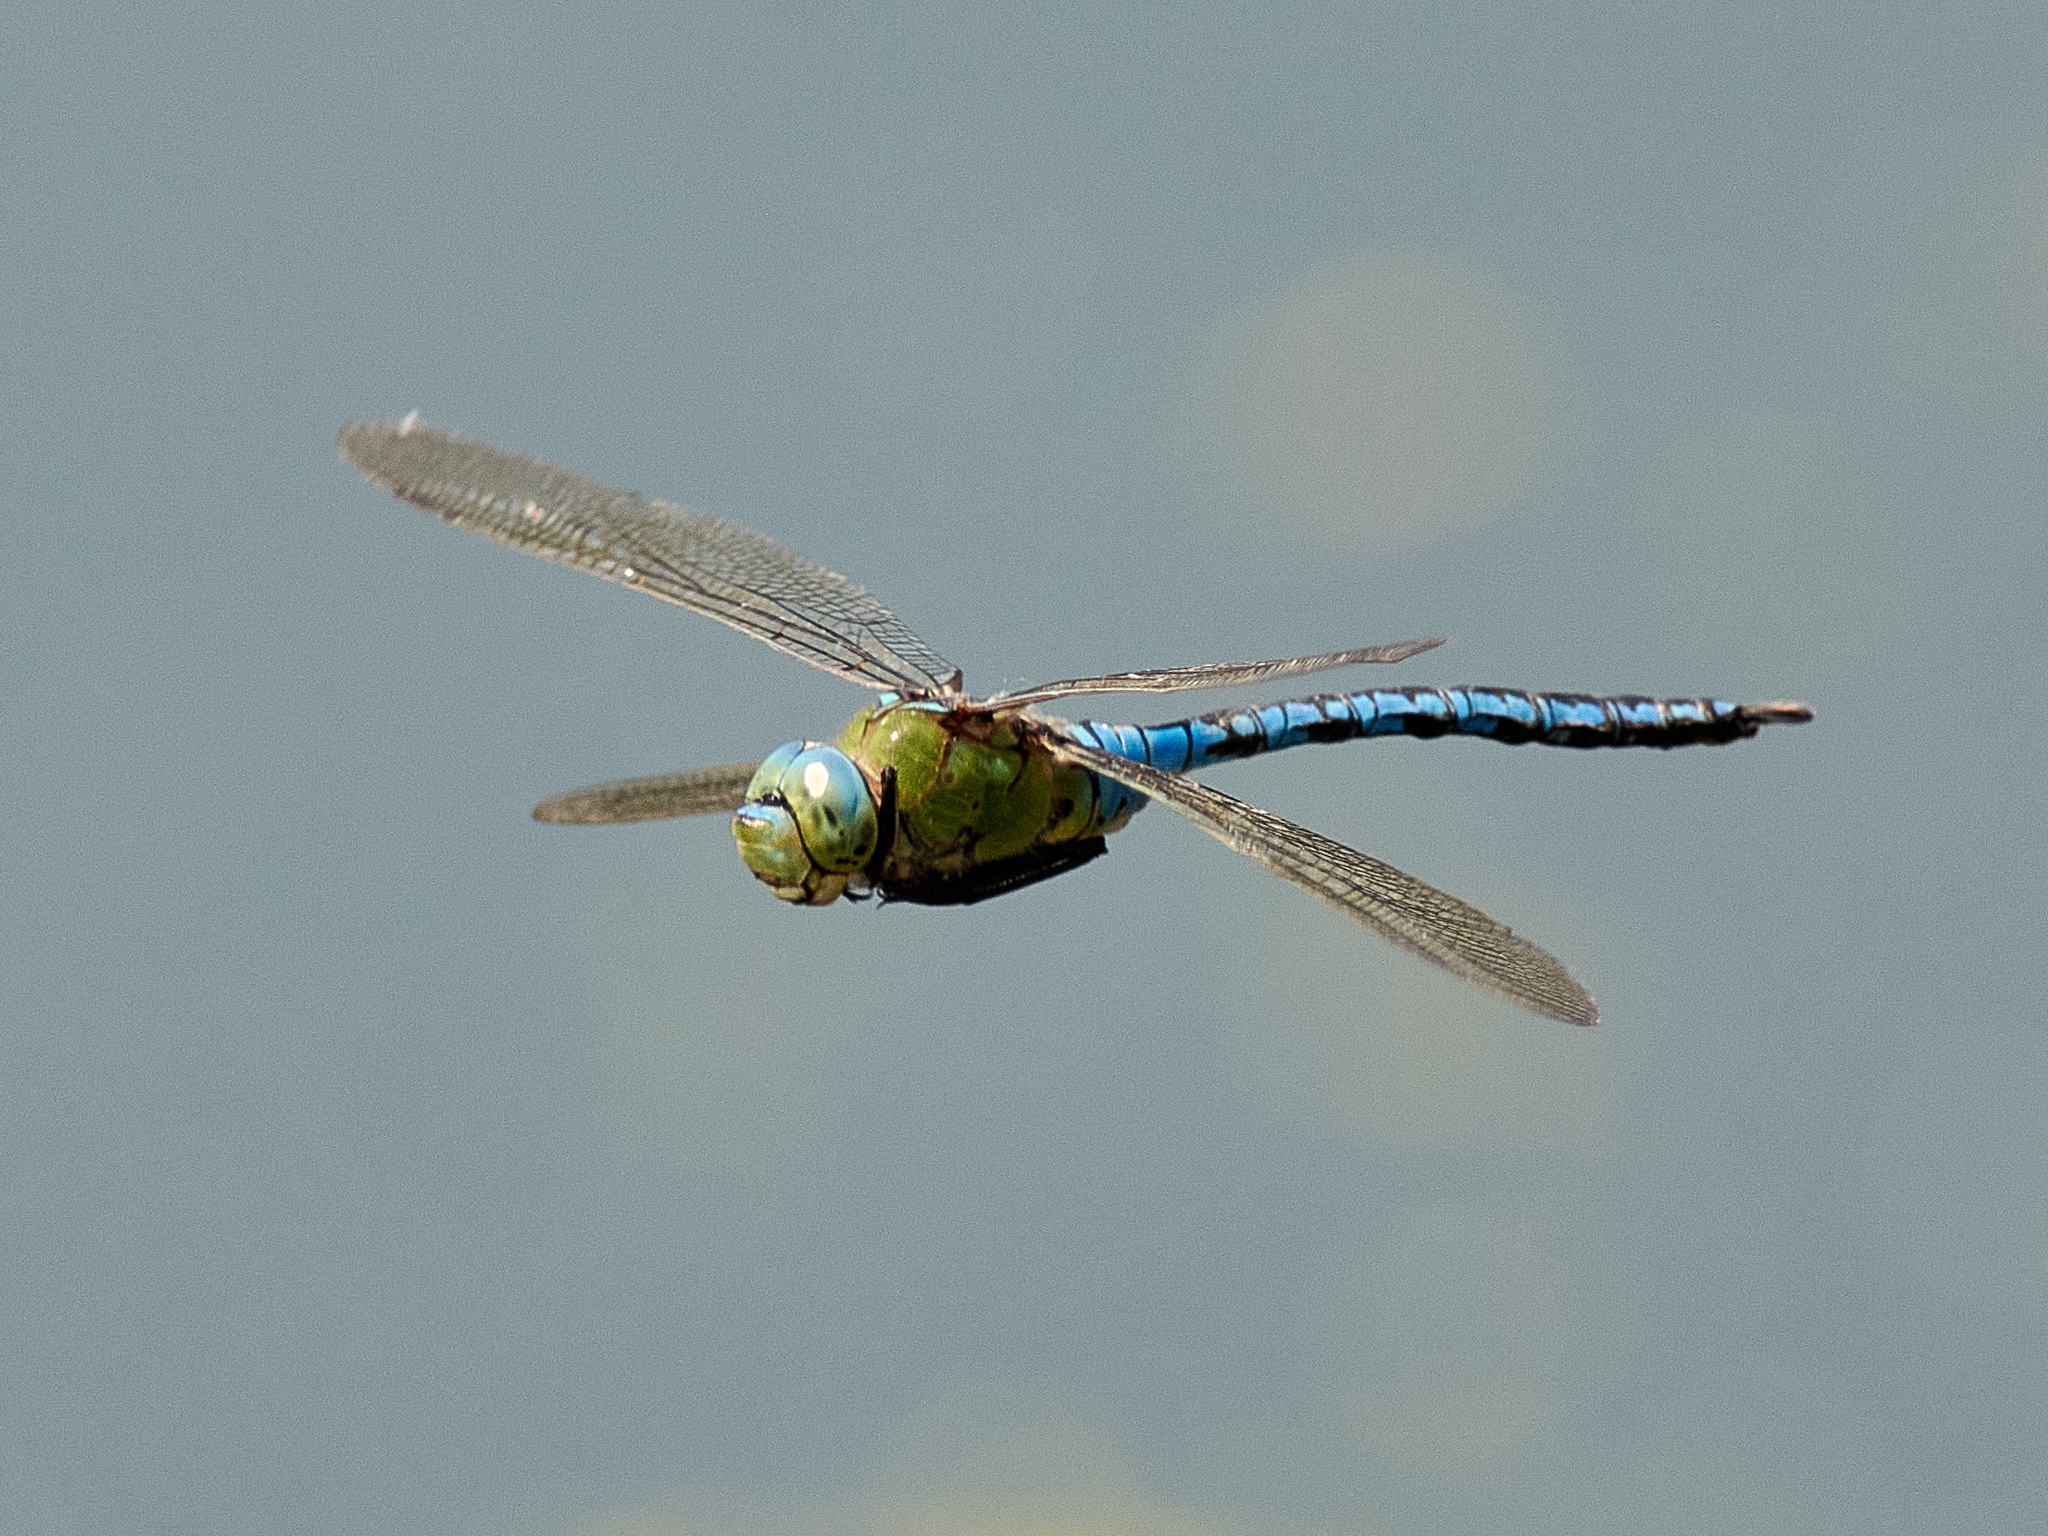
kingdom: Animalia
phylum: Arthropoda
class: Insecta
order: Odonata
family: Aeshnidae
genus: Anax
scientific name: Anax imperator
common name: Emperor dragonfly
